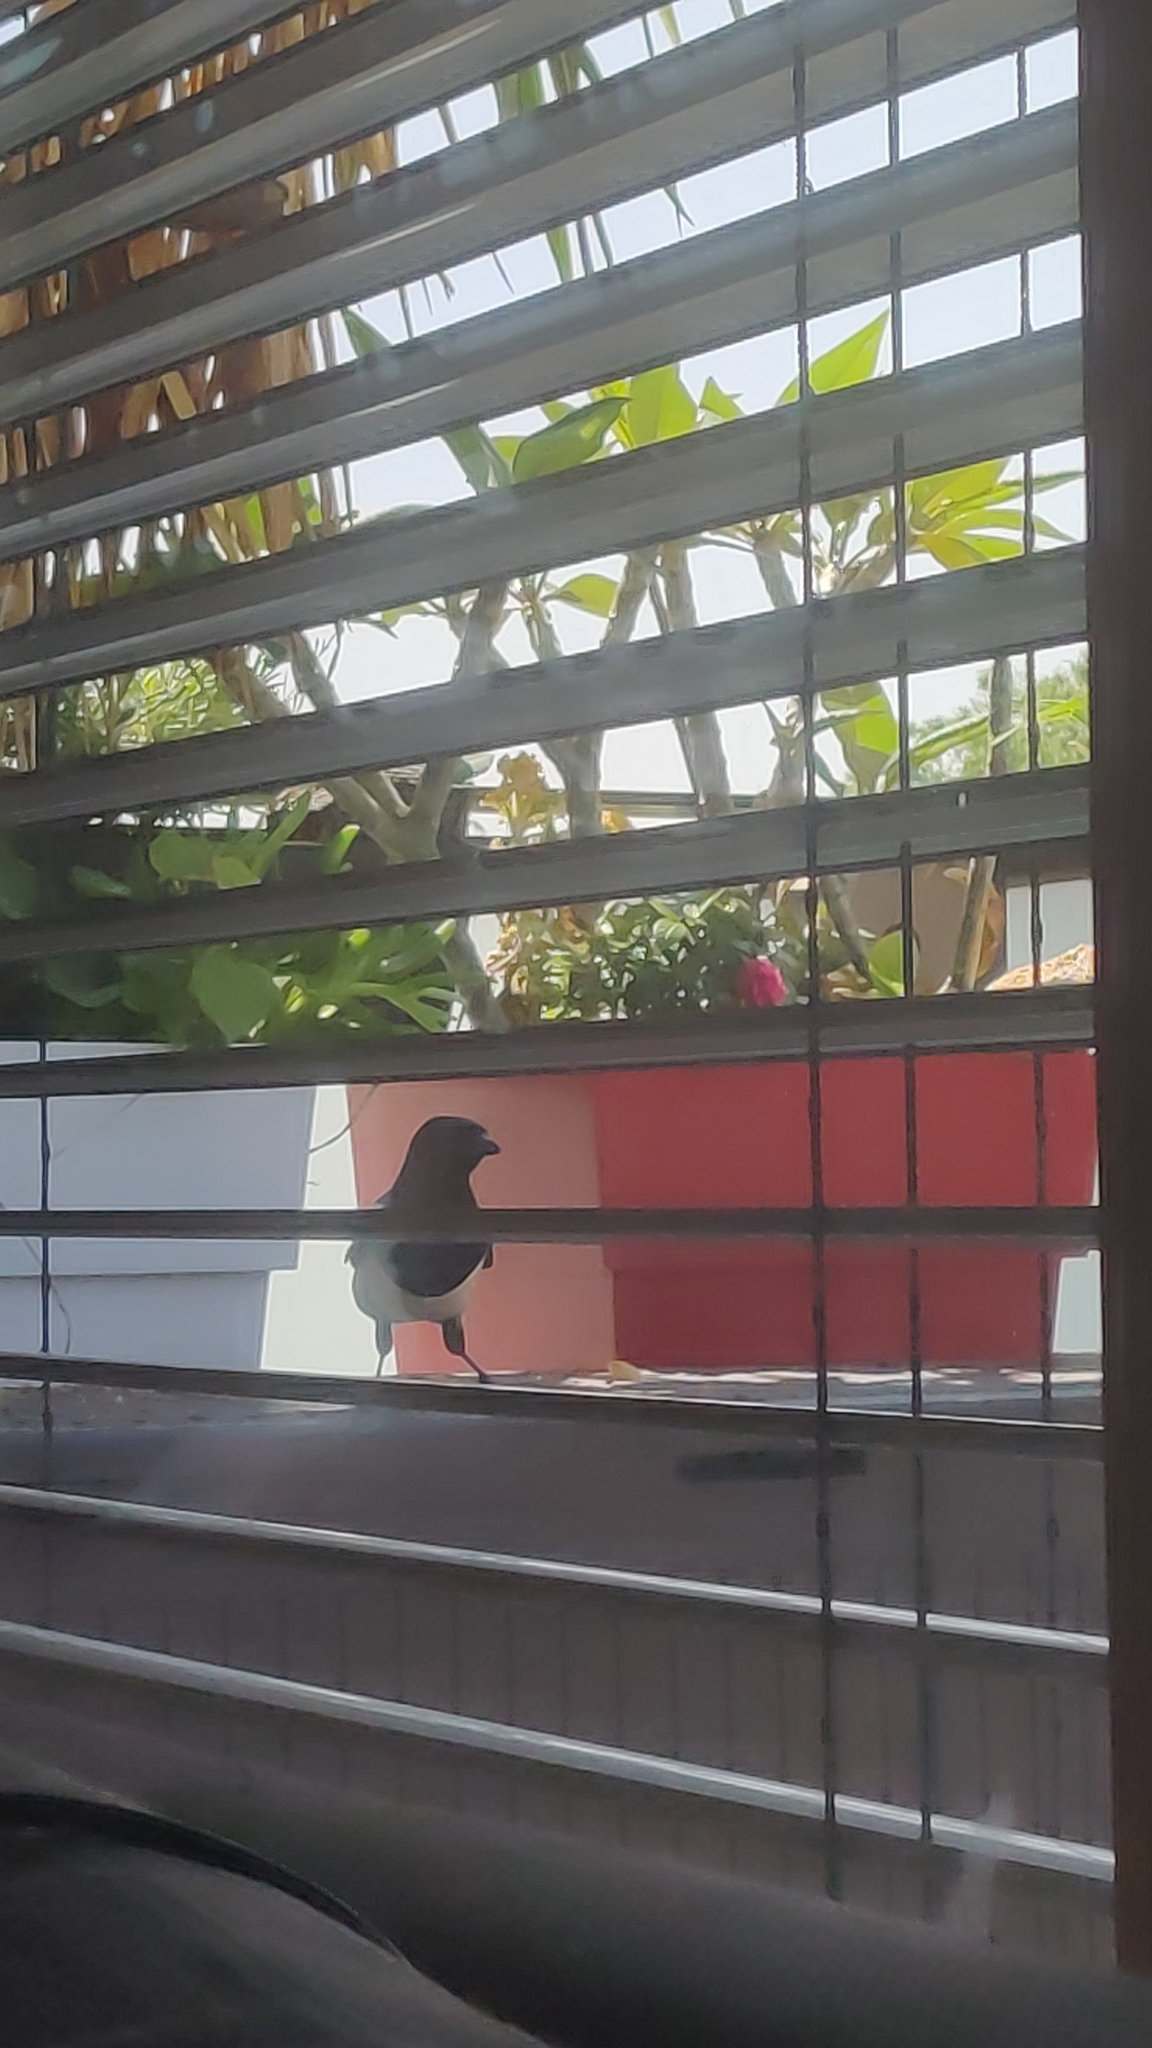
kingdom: Animalia
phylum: Chordata
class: Aves
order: Passeriformes
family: Corvidae
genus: Pica
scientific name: Pica pica
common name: Eurasian magpie
